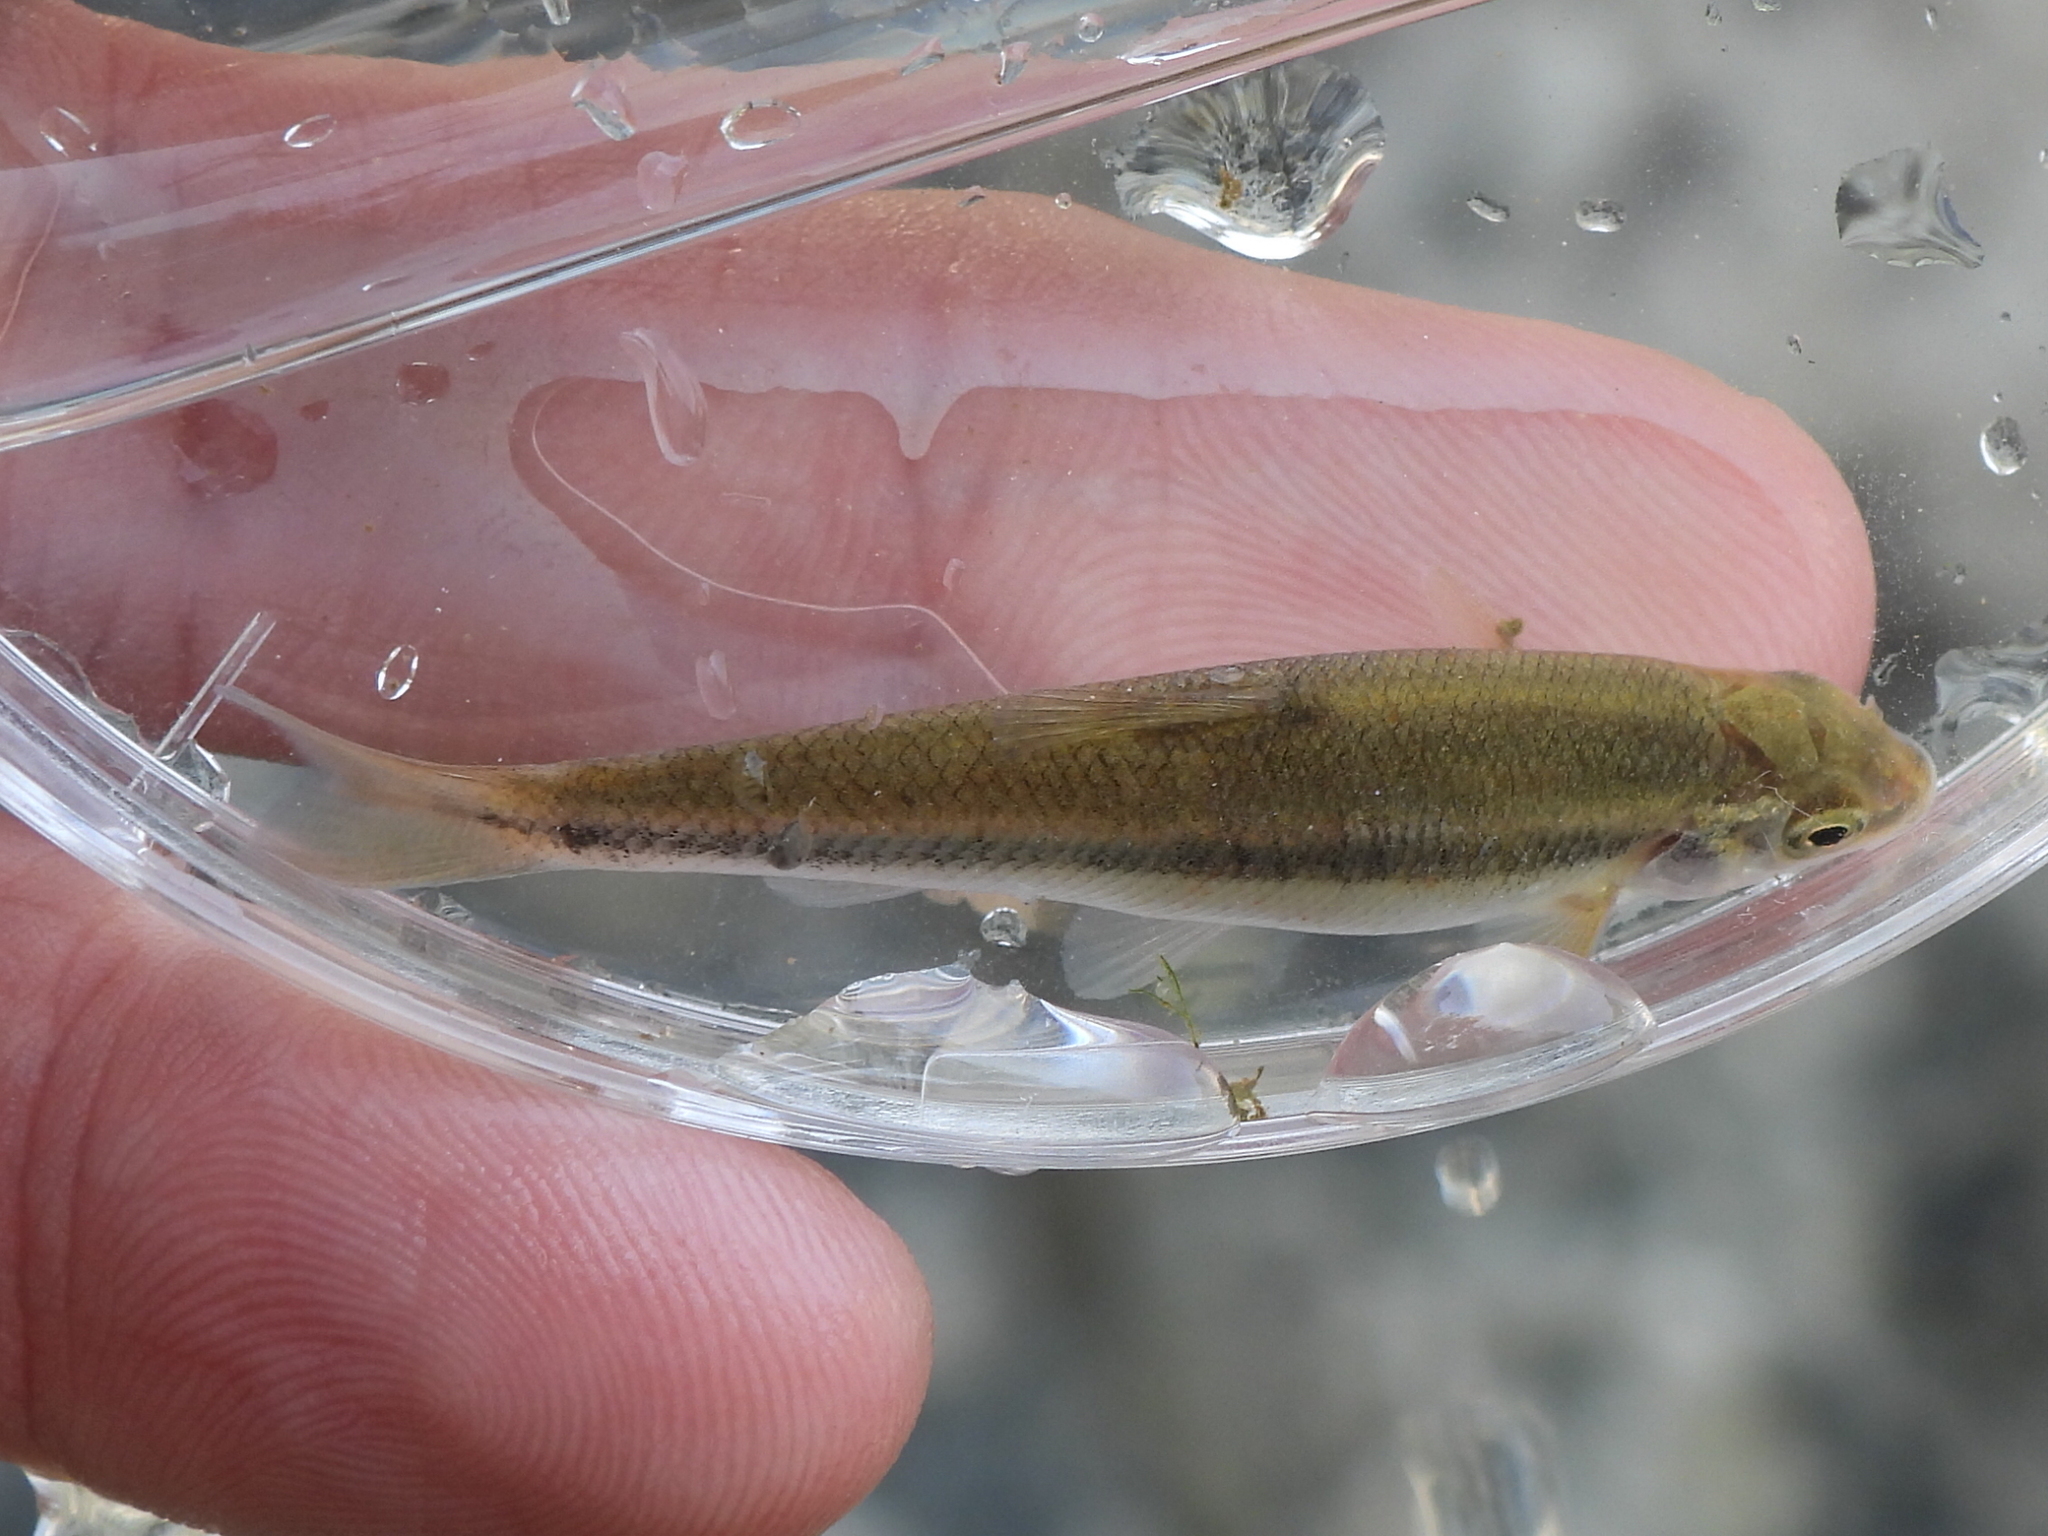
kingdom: Animalia
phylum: Chordata
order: Cypriniformes
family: Cyprinidae
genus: Campostoma
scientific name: Campostoma anomalum
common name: Central stoneroller
